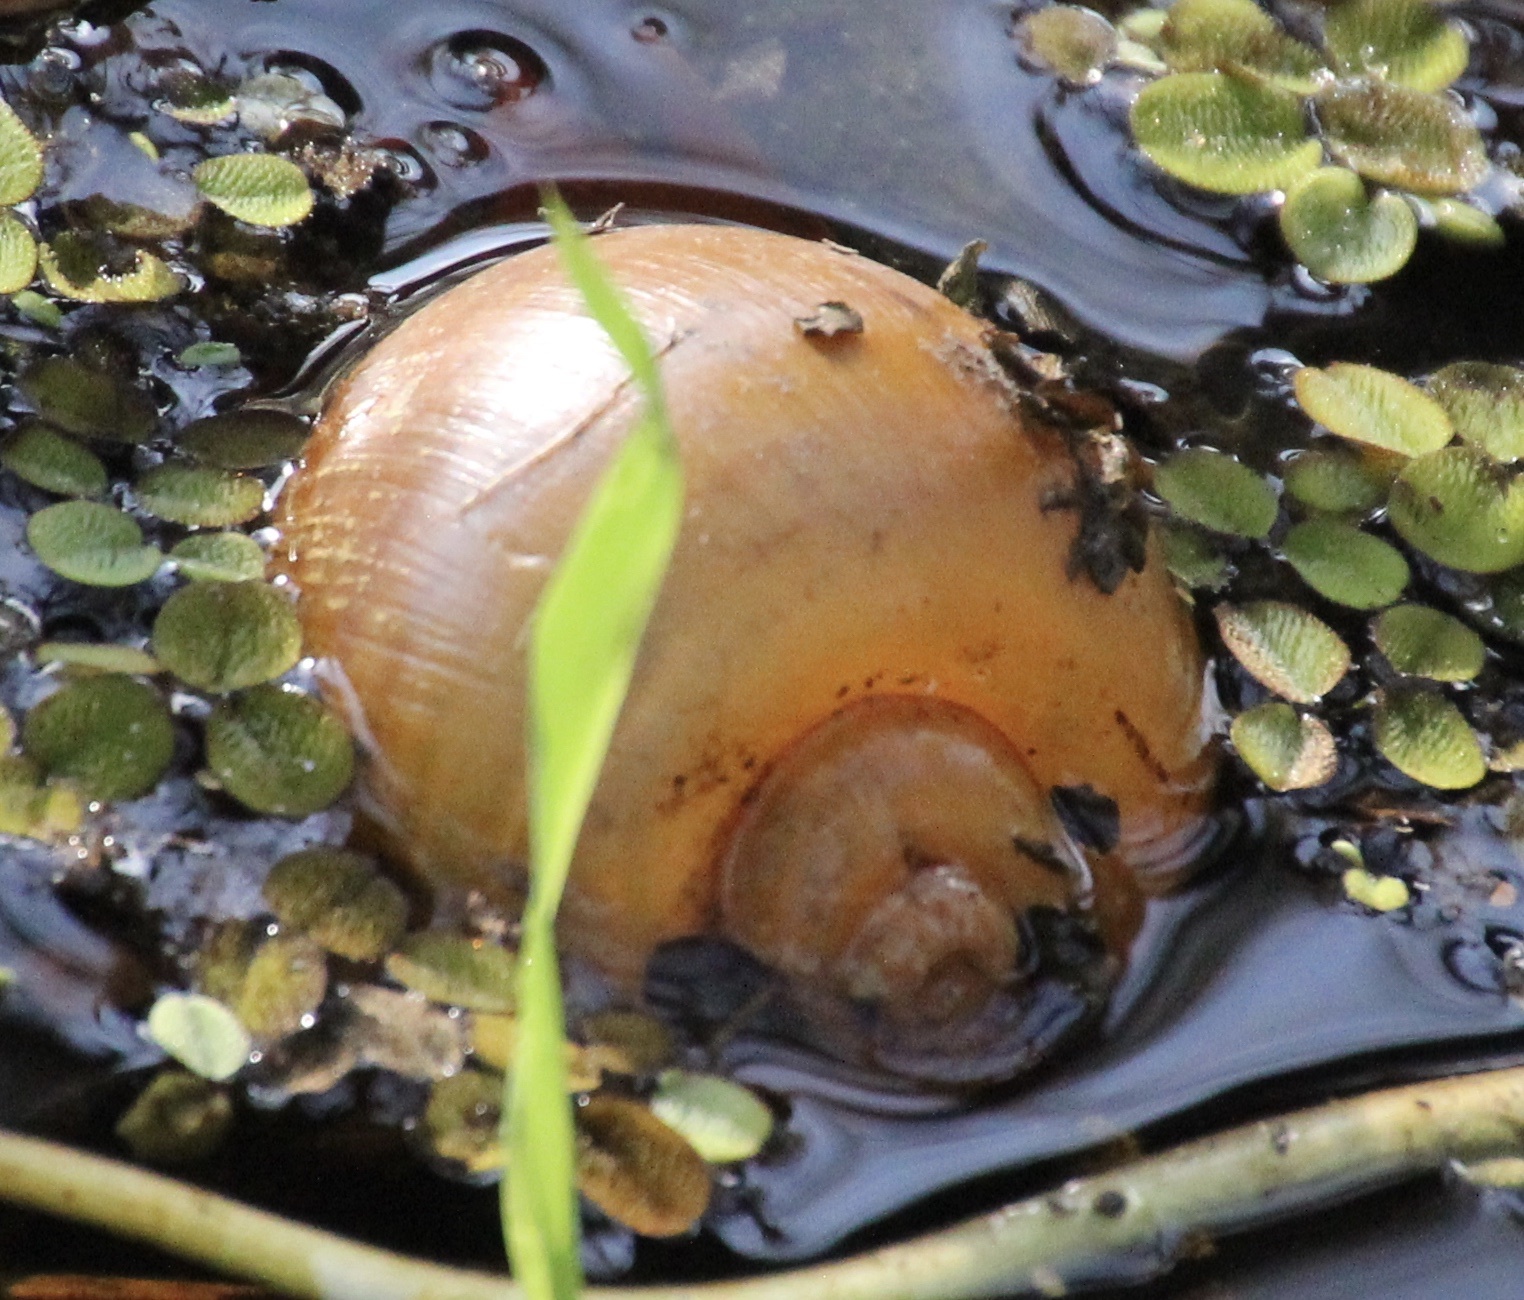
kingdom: Animalia
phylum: Mollusca
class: Gastropoda
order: Architaenioglossa
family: Ampullariidae
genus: Pomacea
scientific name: Pomacea maculata
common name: Giant applesnail
